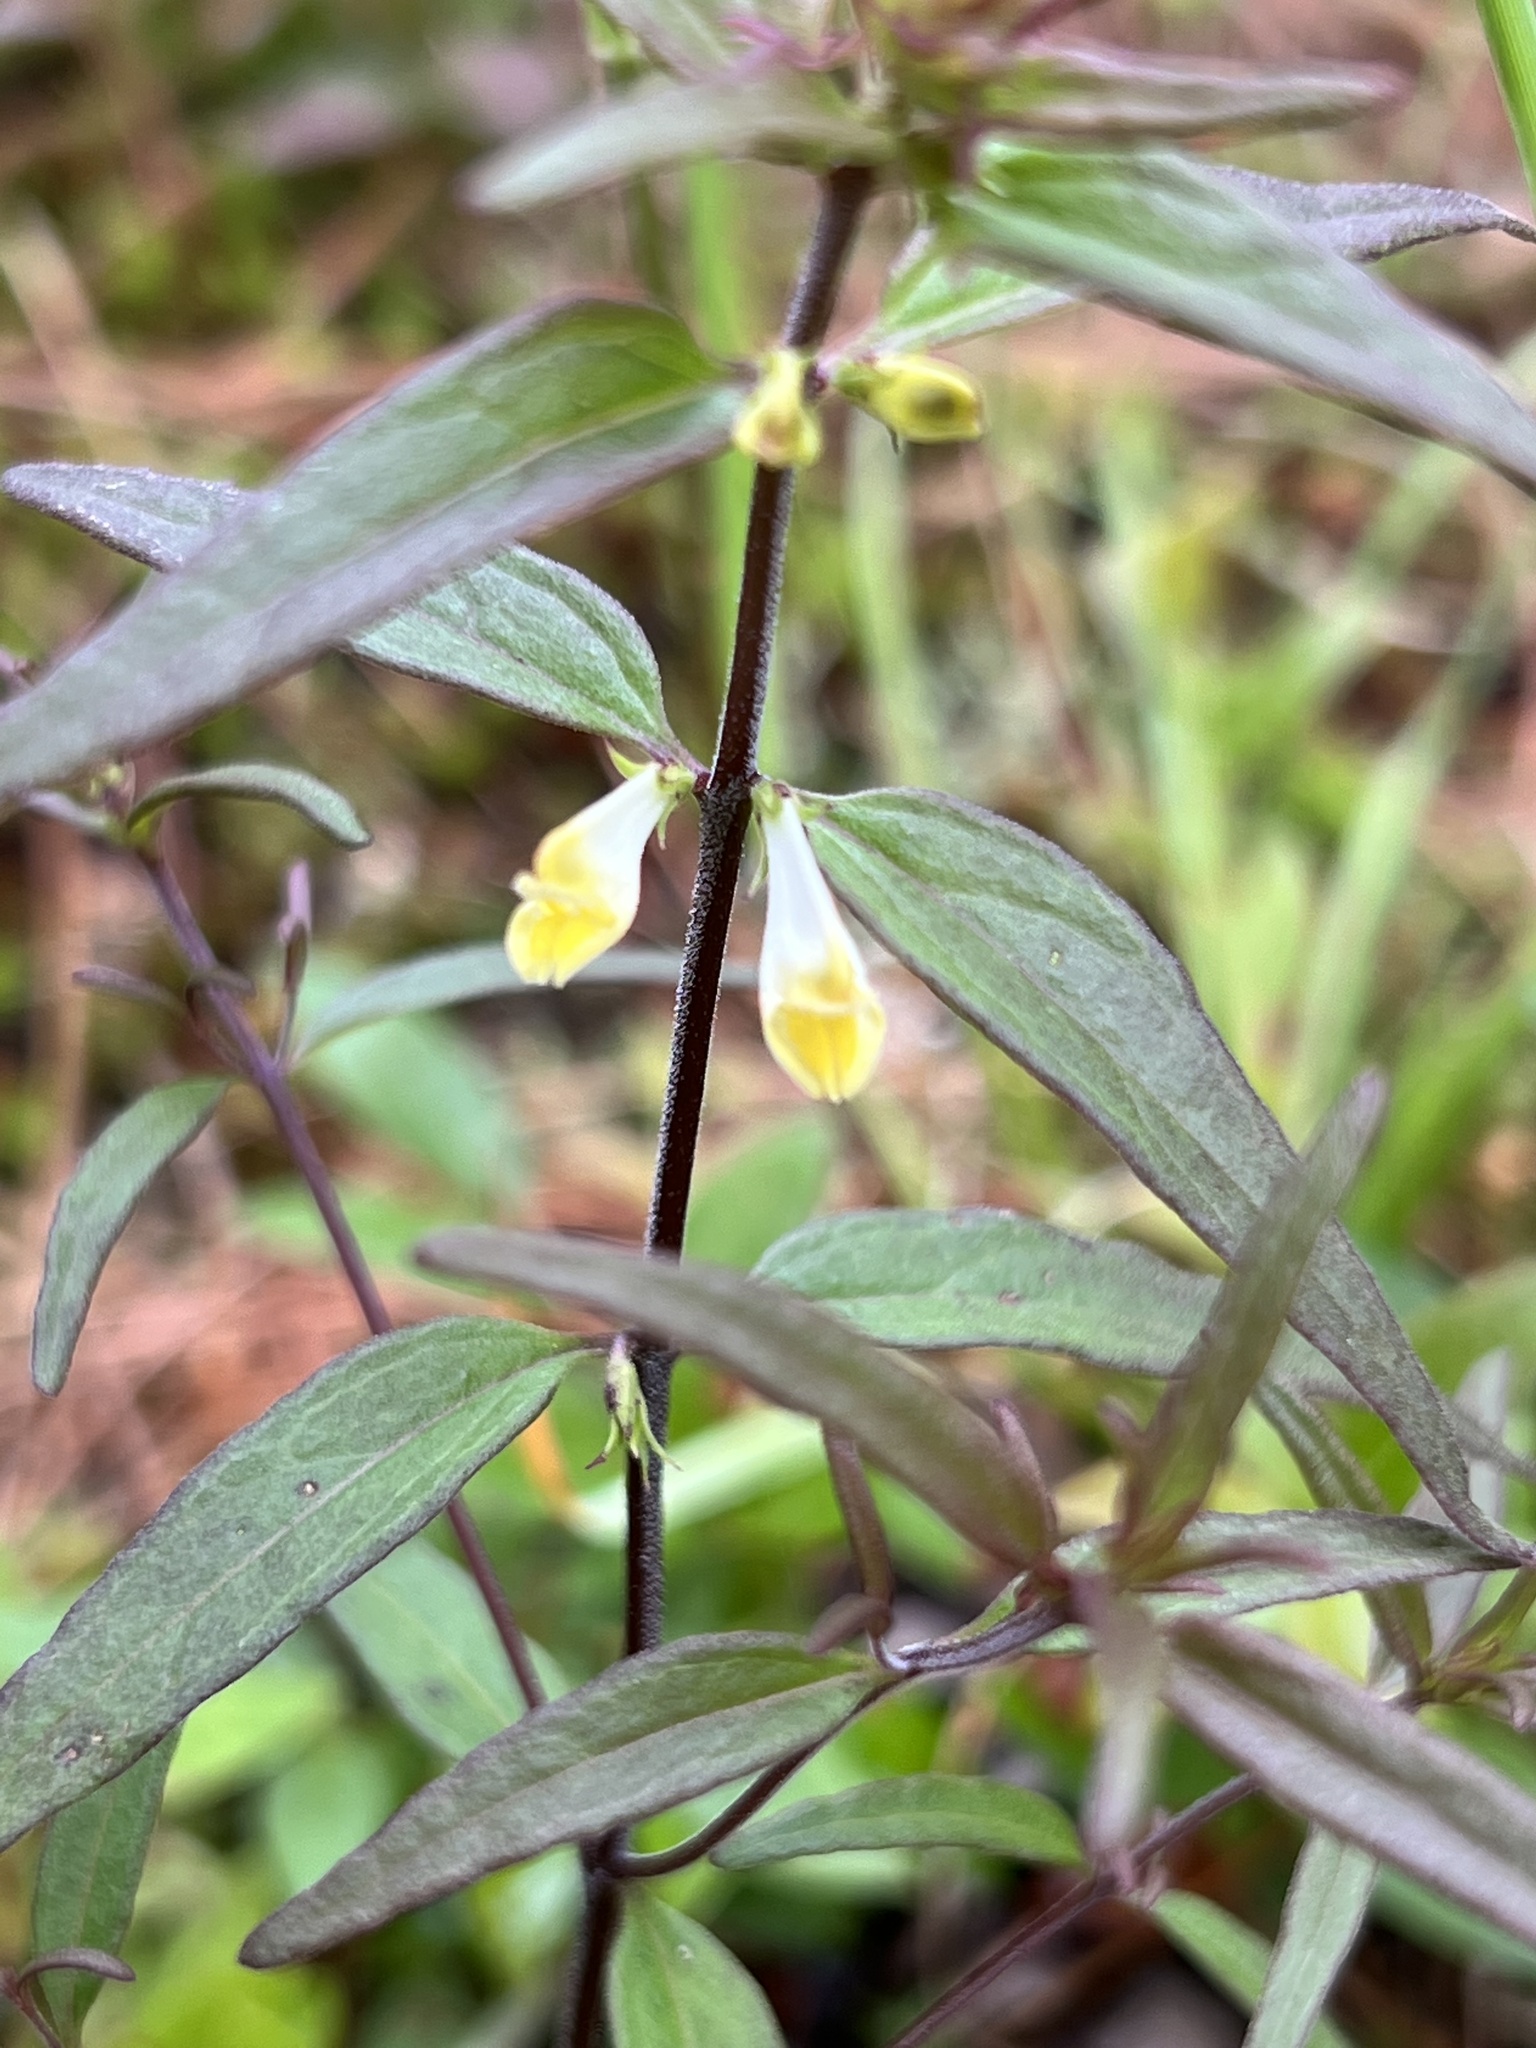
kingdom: Plantae
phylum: Tracheophyta
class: Magnoliopsida
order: Lamiales
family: Orobanchaceae
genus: Melampyrum
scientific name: Melampyrum lineare
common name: American cow-wheat
